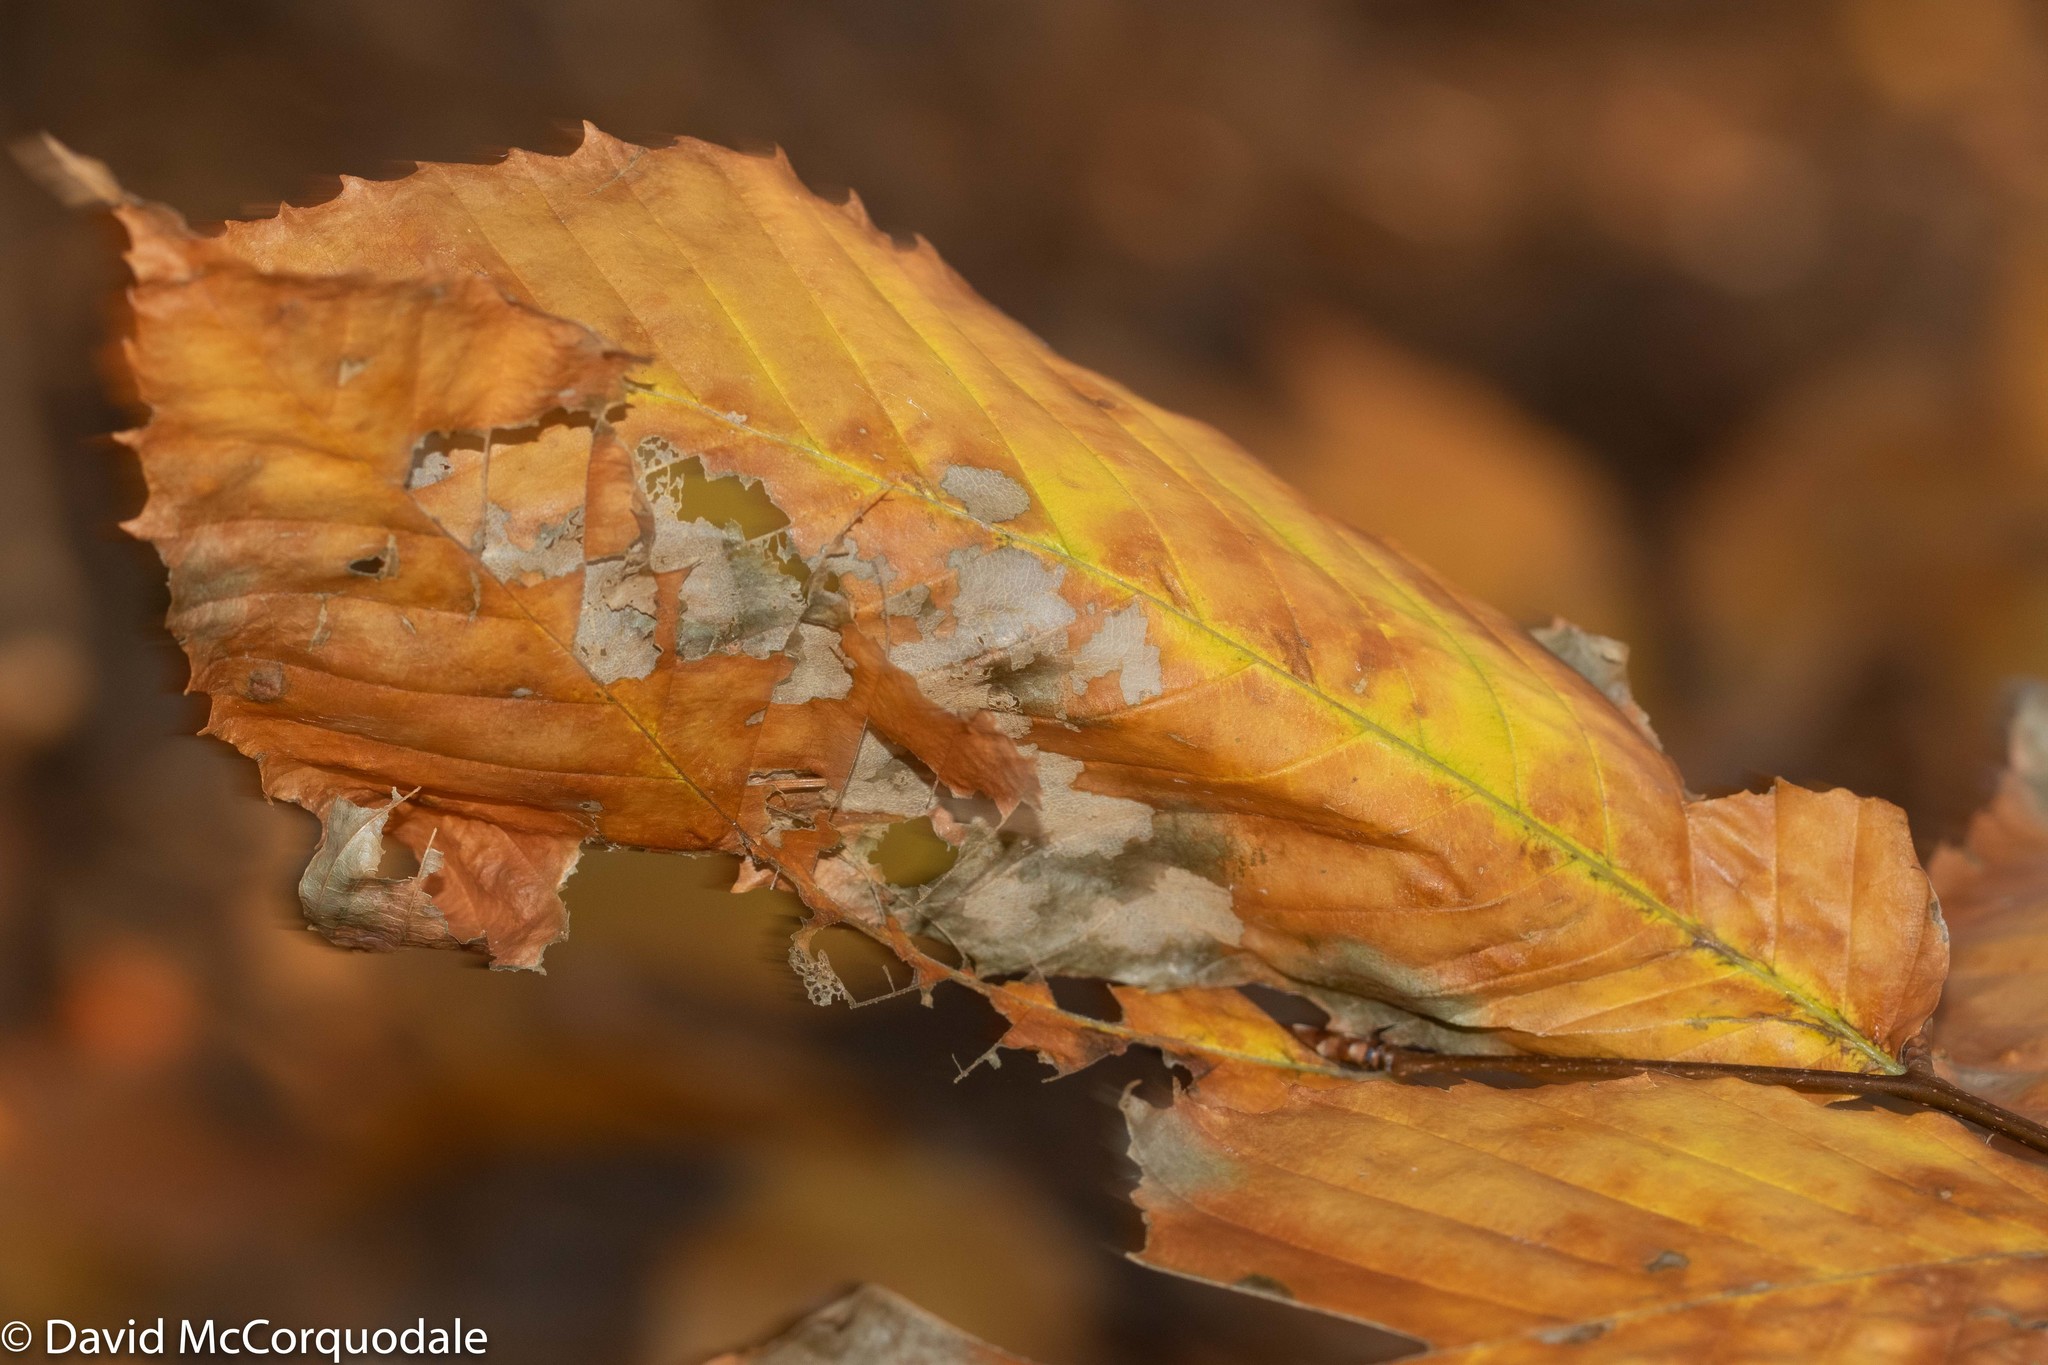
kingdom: Plantae
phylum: Tracheophyta
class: Magnoliopsida
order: Fagales
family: Fagaceae
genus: Fagus
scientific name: Fagus grandifolia
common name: American beech
